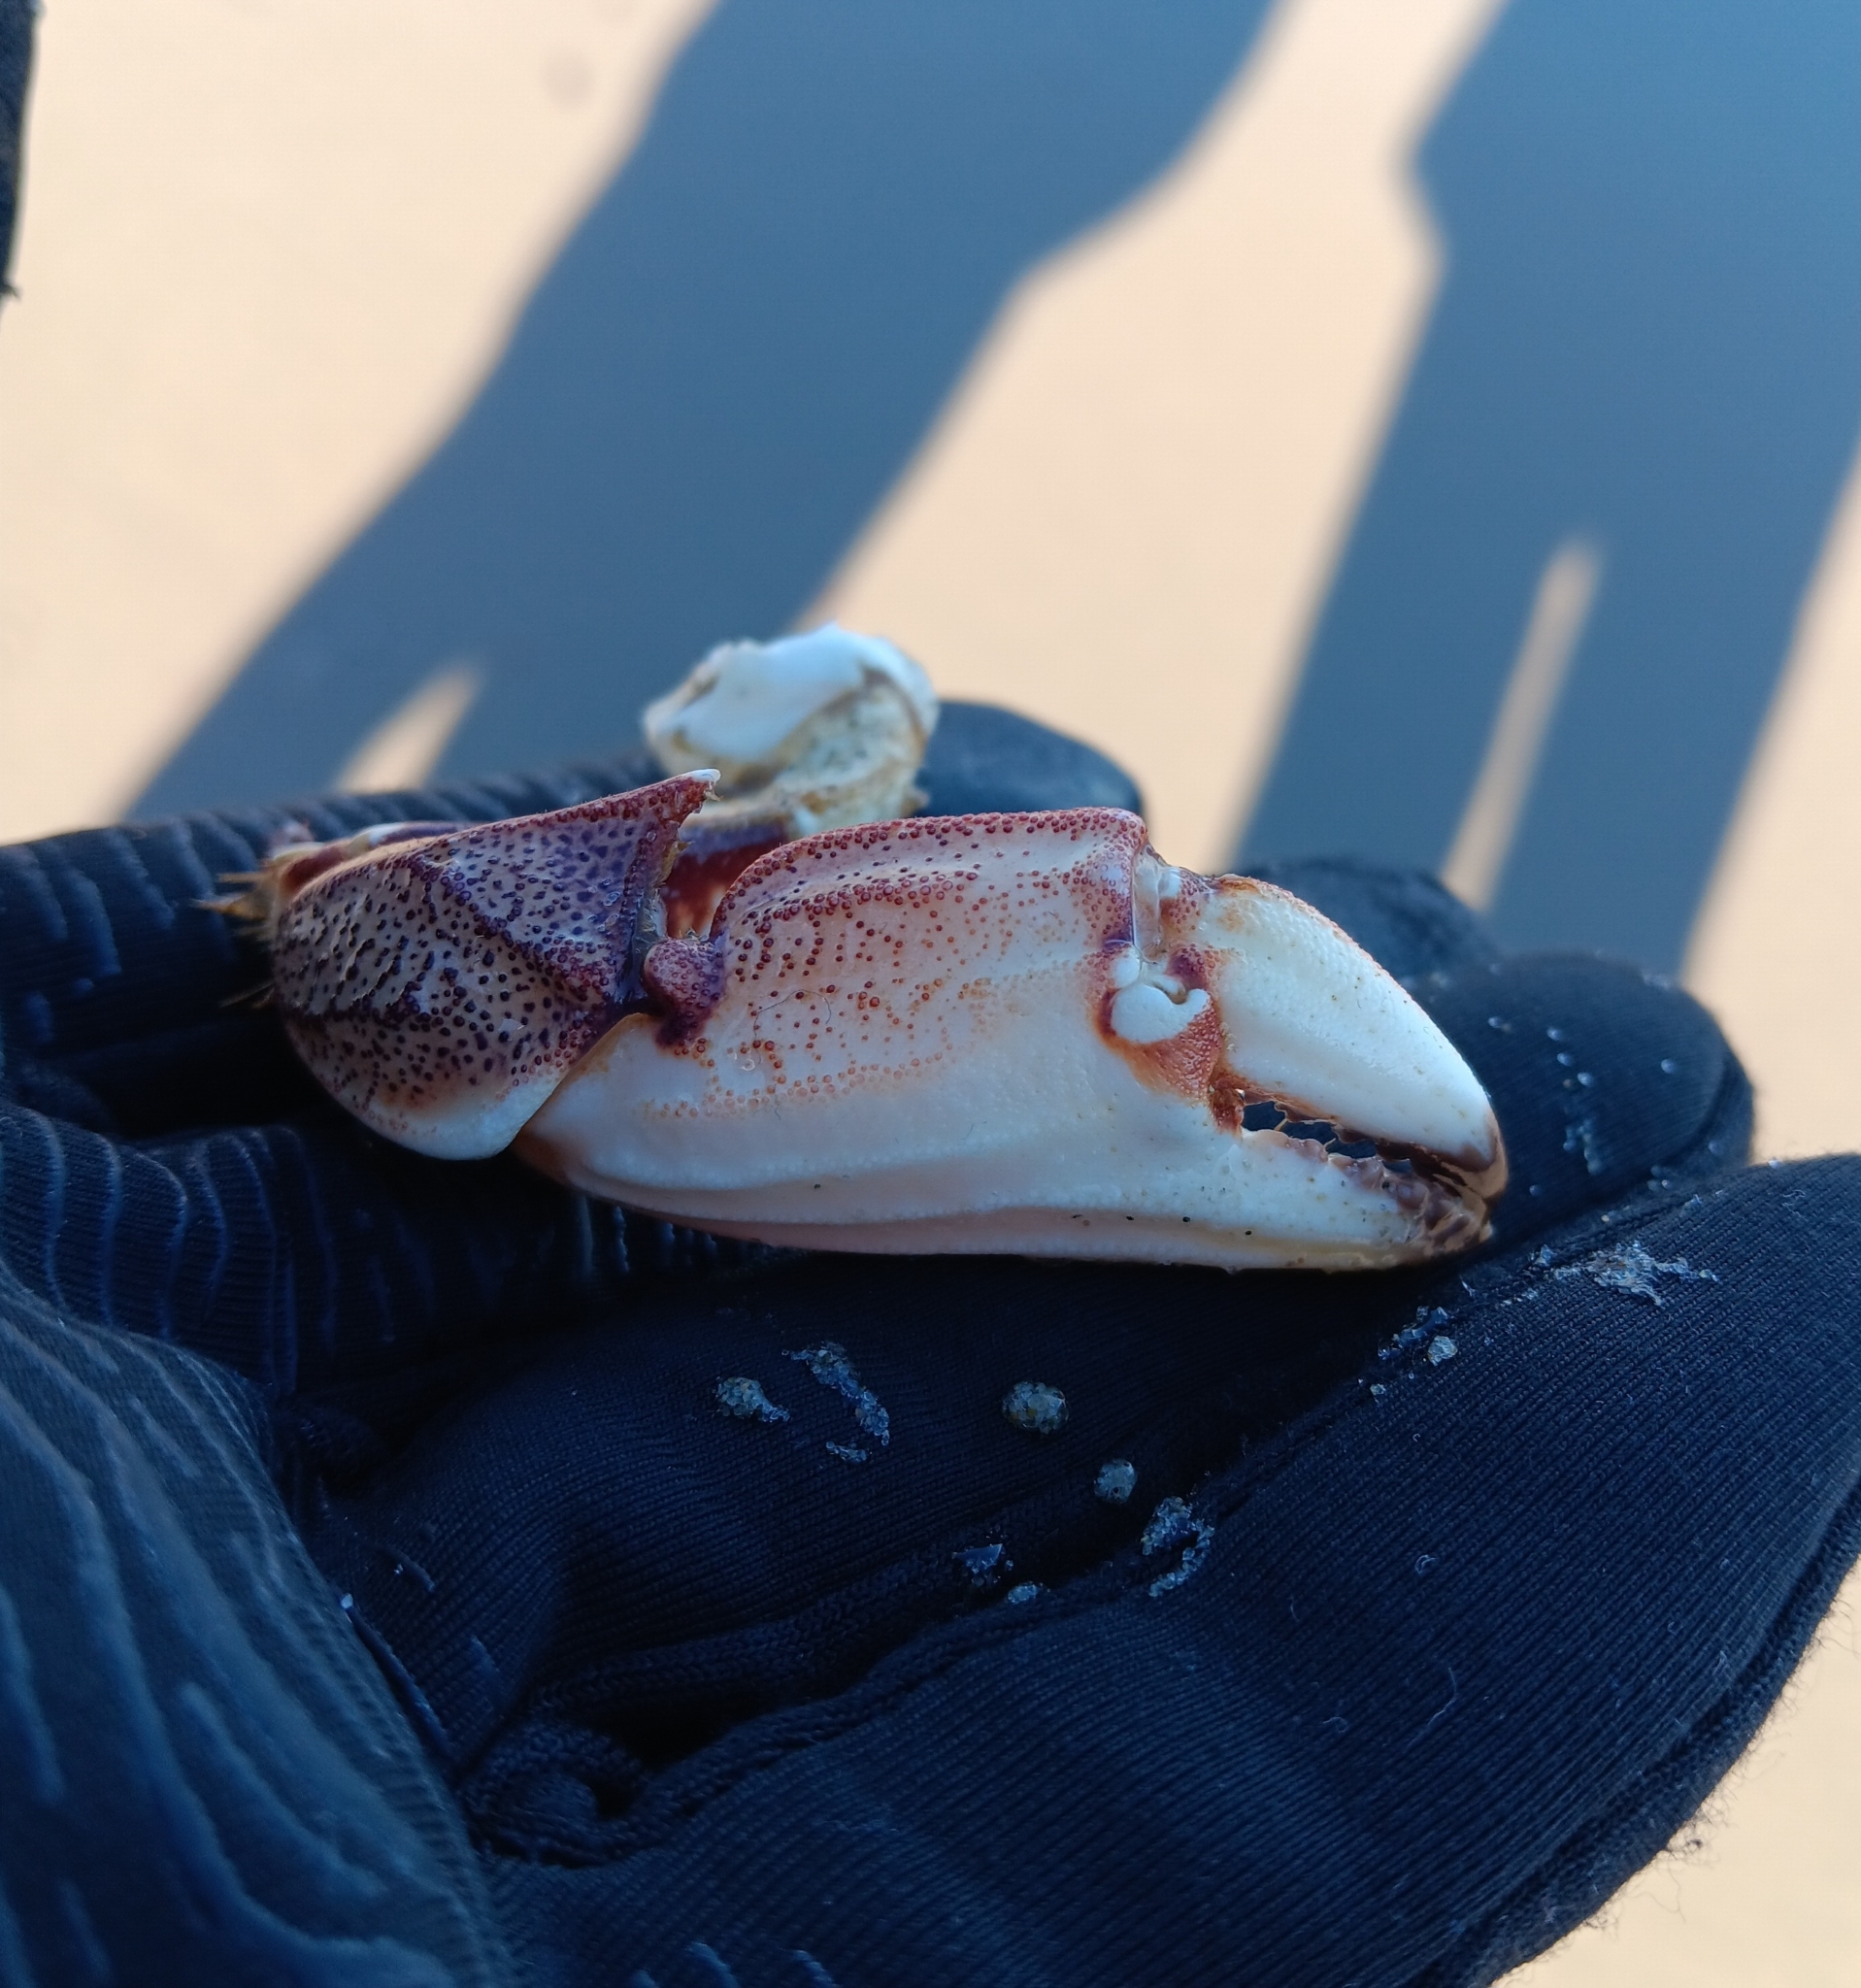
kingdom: Animalia
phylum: Arthropoda
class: Malacostraca
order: Decapoda
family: Cancridae
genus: Cancer
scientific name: Cancer irroratus
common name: Atlantic rock crab
